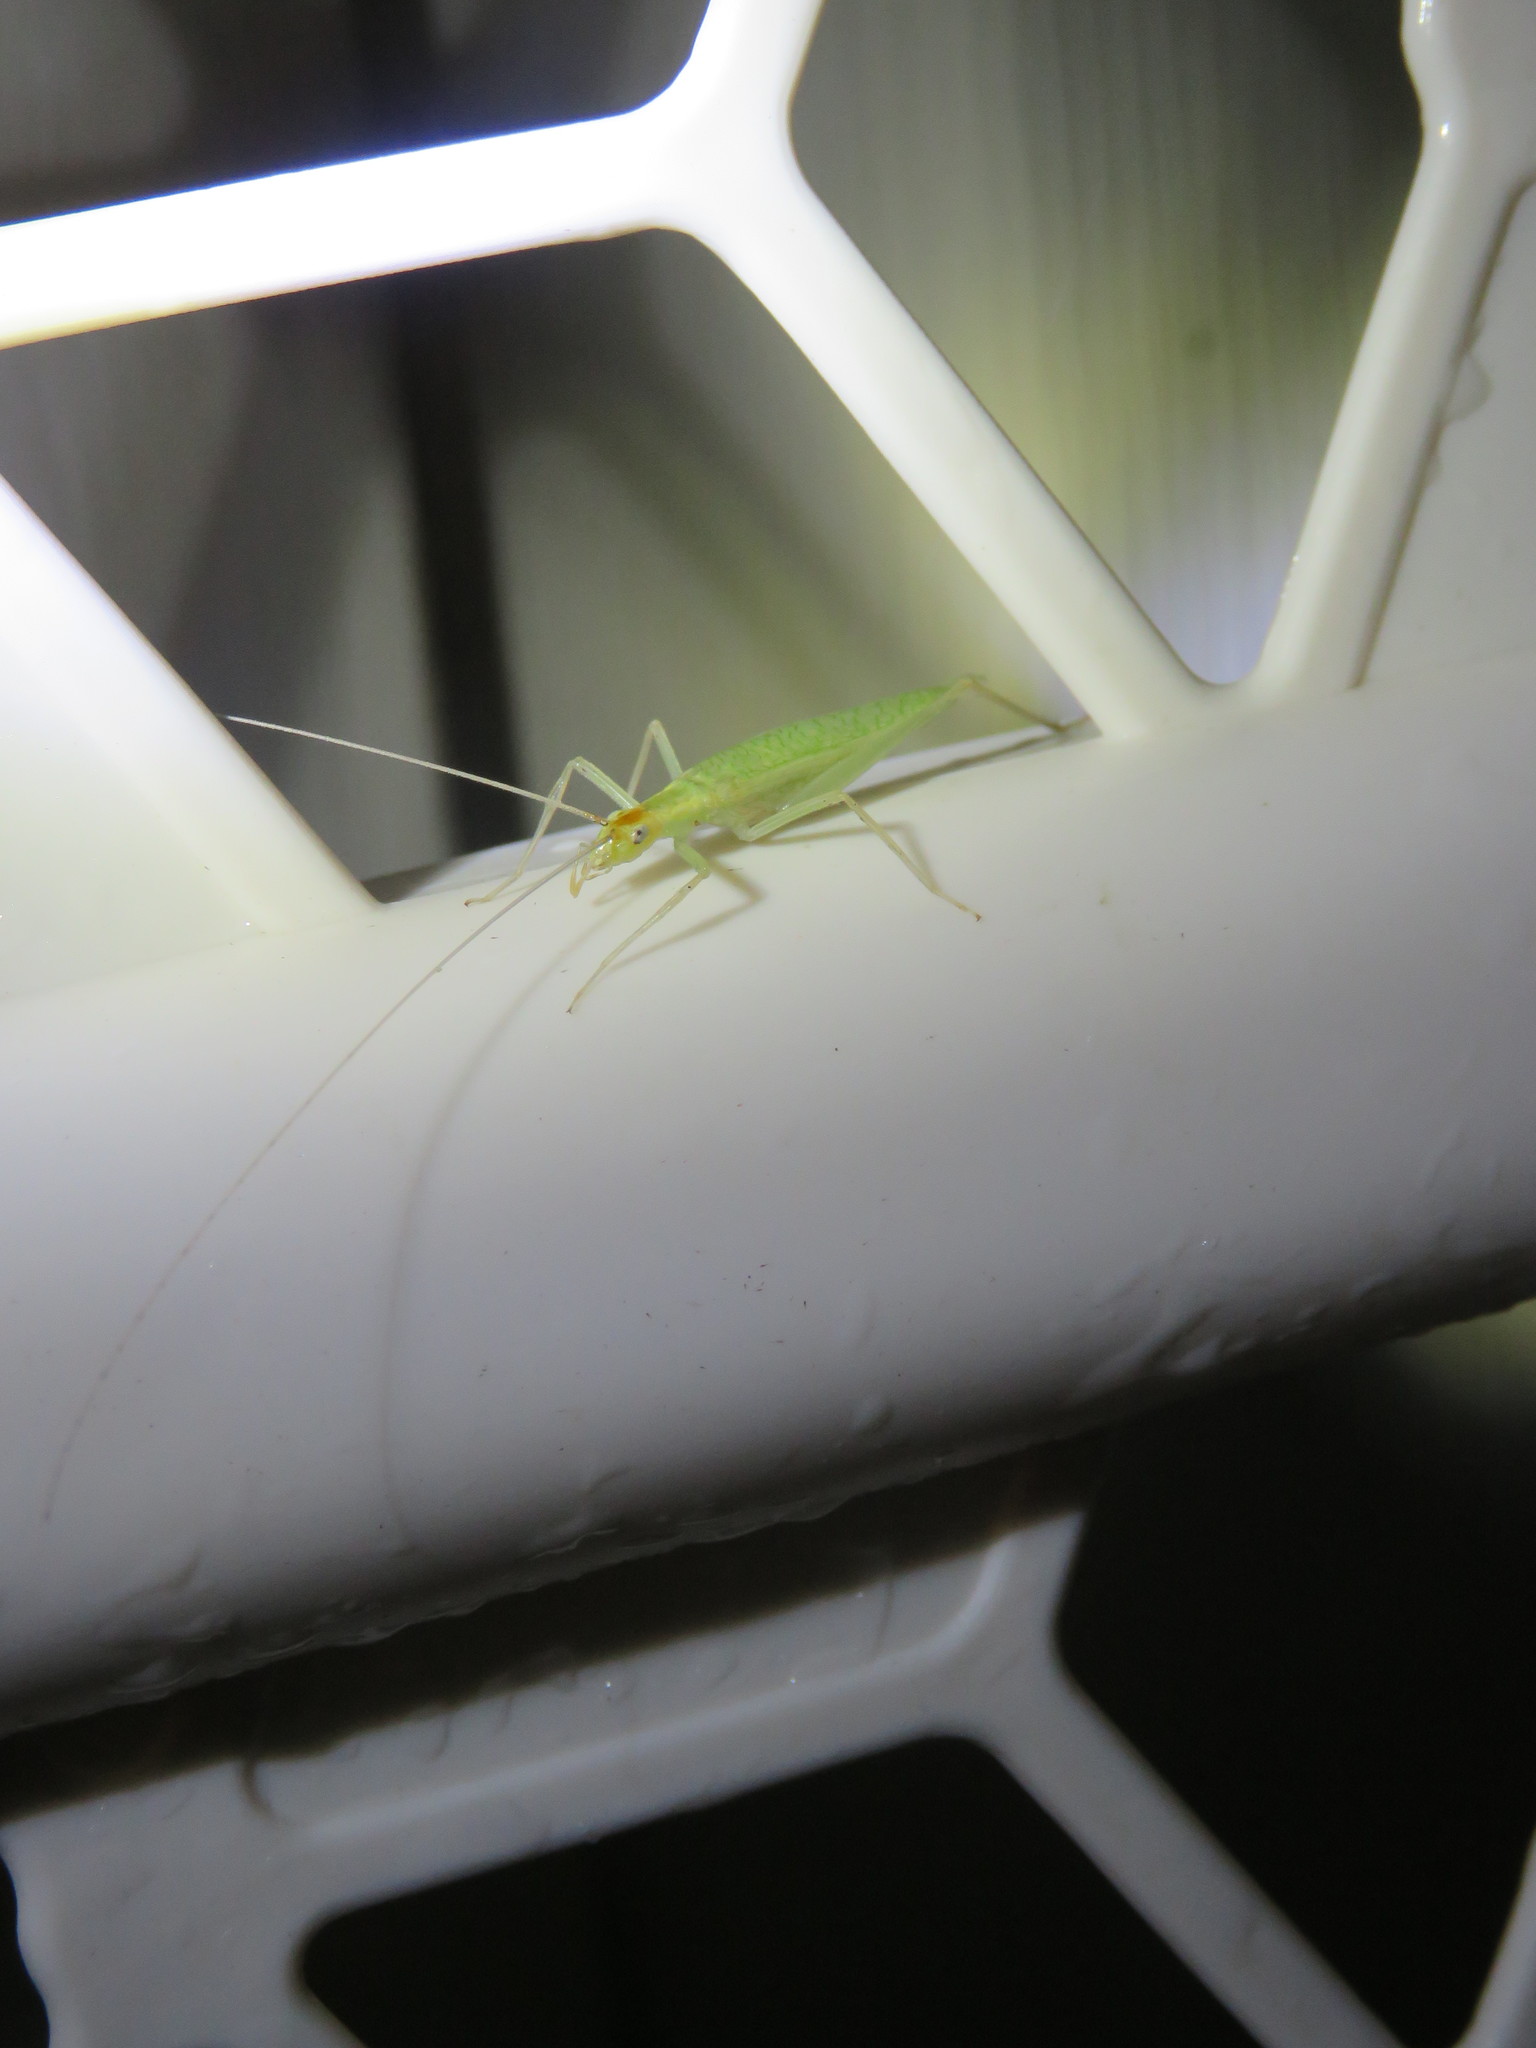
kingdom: Animalia
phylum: Arthropoda
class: Insecta
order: Orthoptera
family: Gryllidae
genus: Oecanthus
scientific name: Oecanthus niveus
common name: Narrow-winged tree cricket
